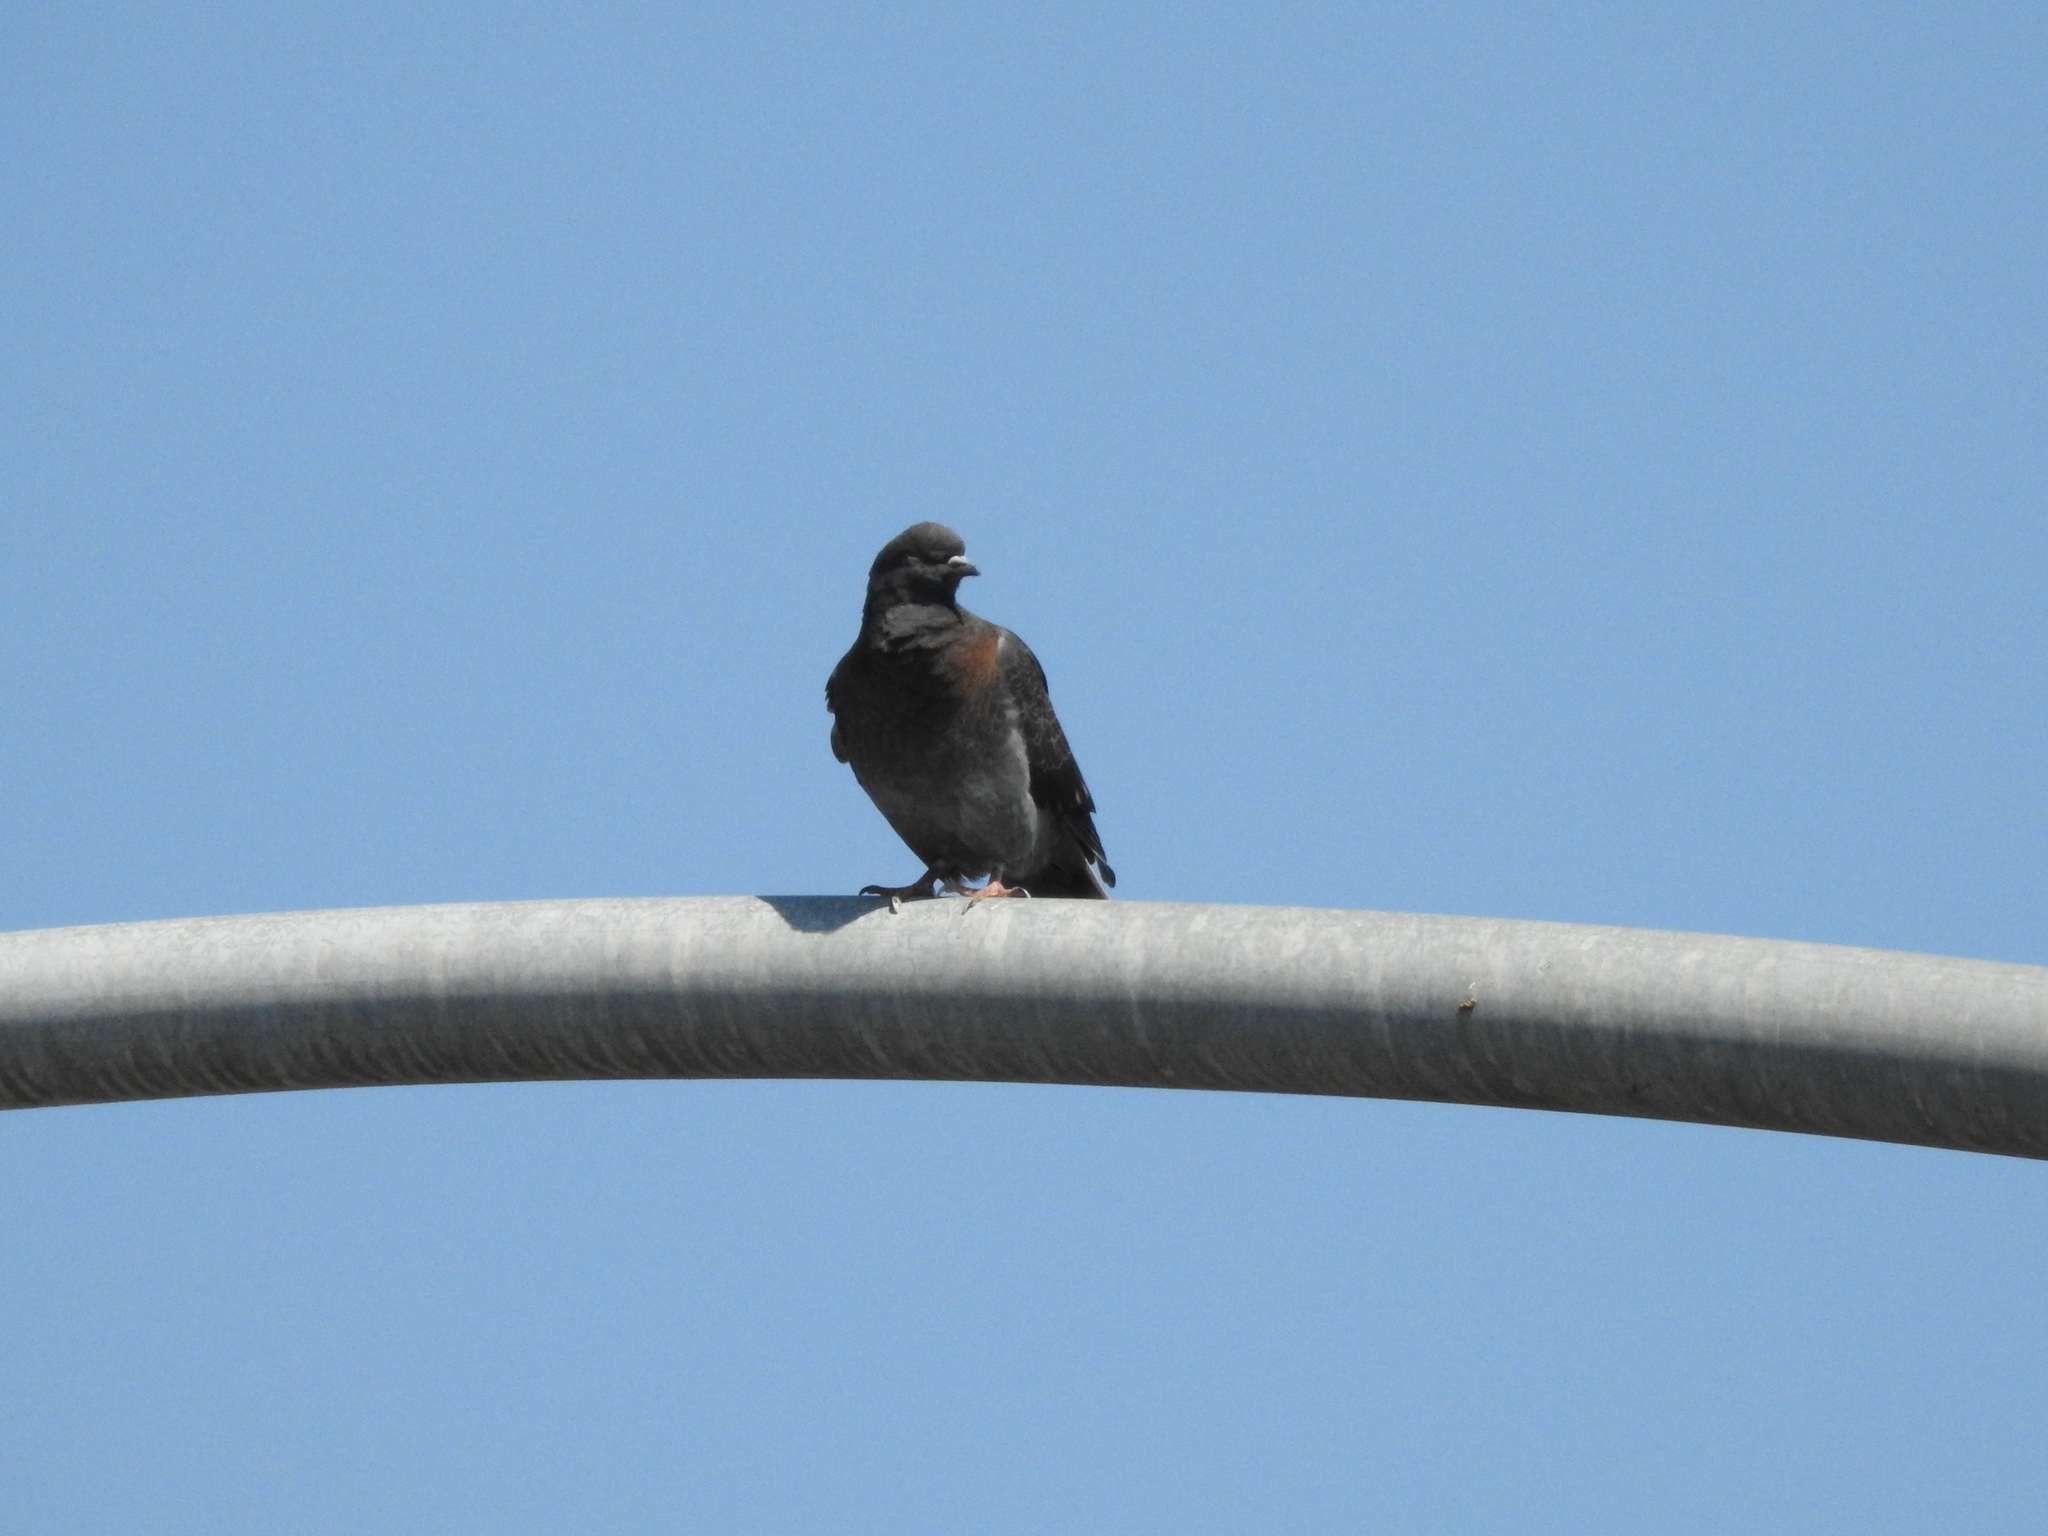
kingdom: Animalia
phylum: Chordata
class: Aves
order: Columbiformes
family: Columbidae
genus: Columba
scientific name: Columba livia
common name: Rock pigeon
